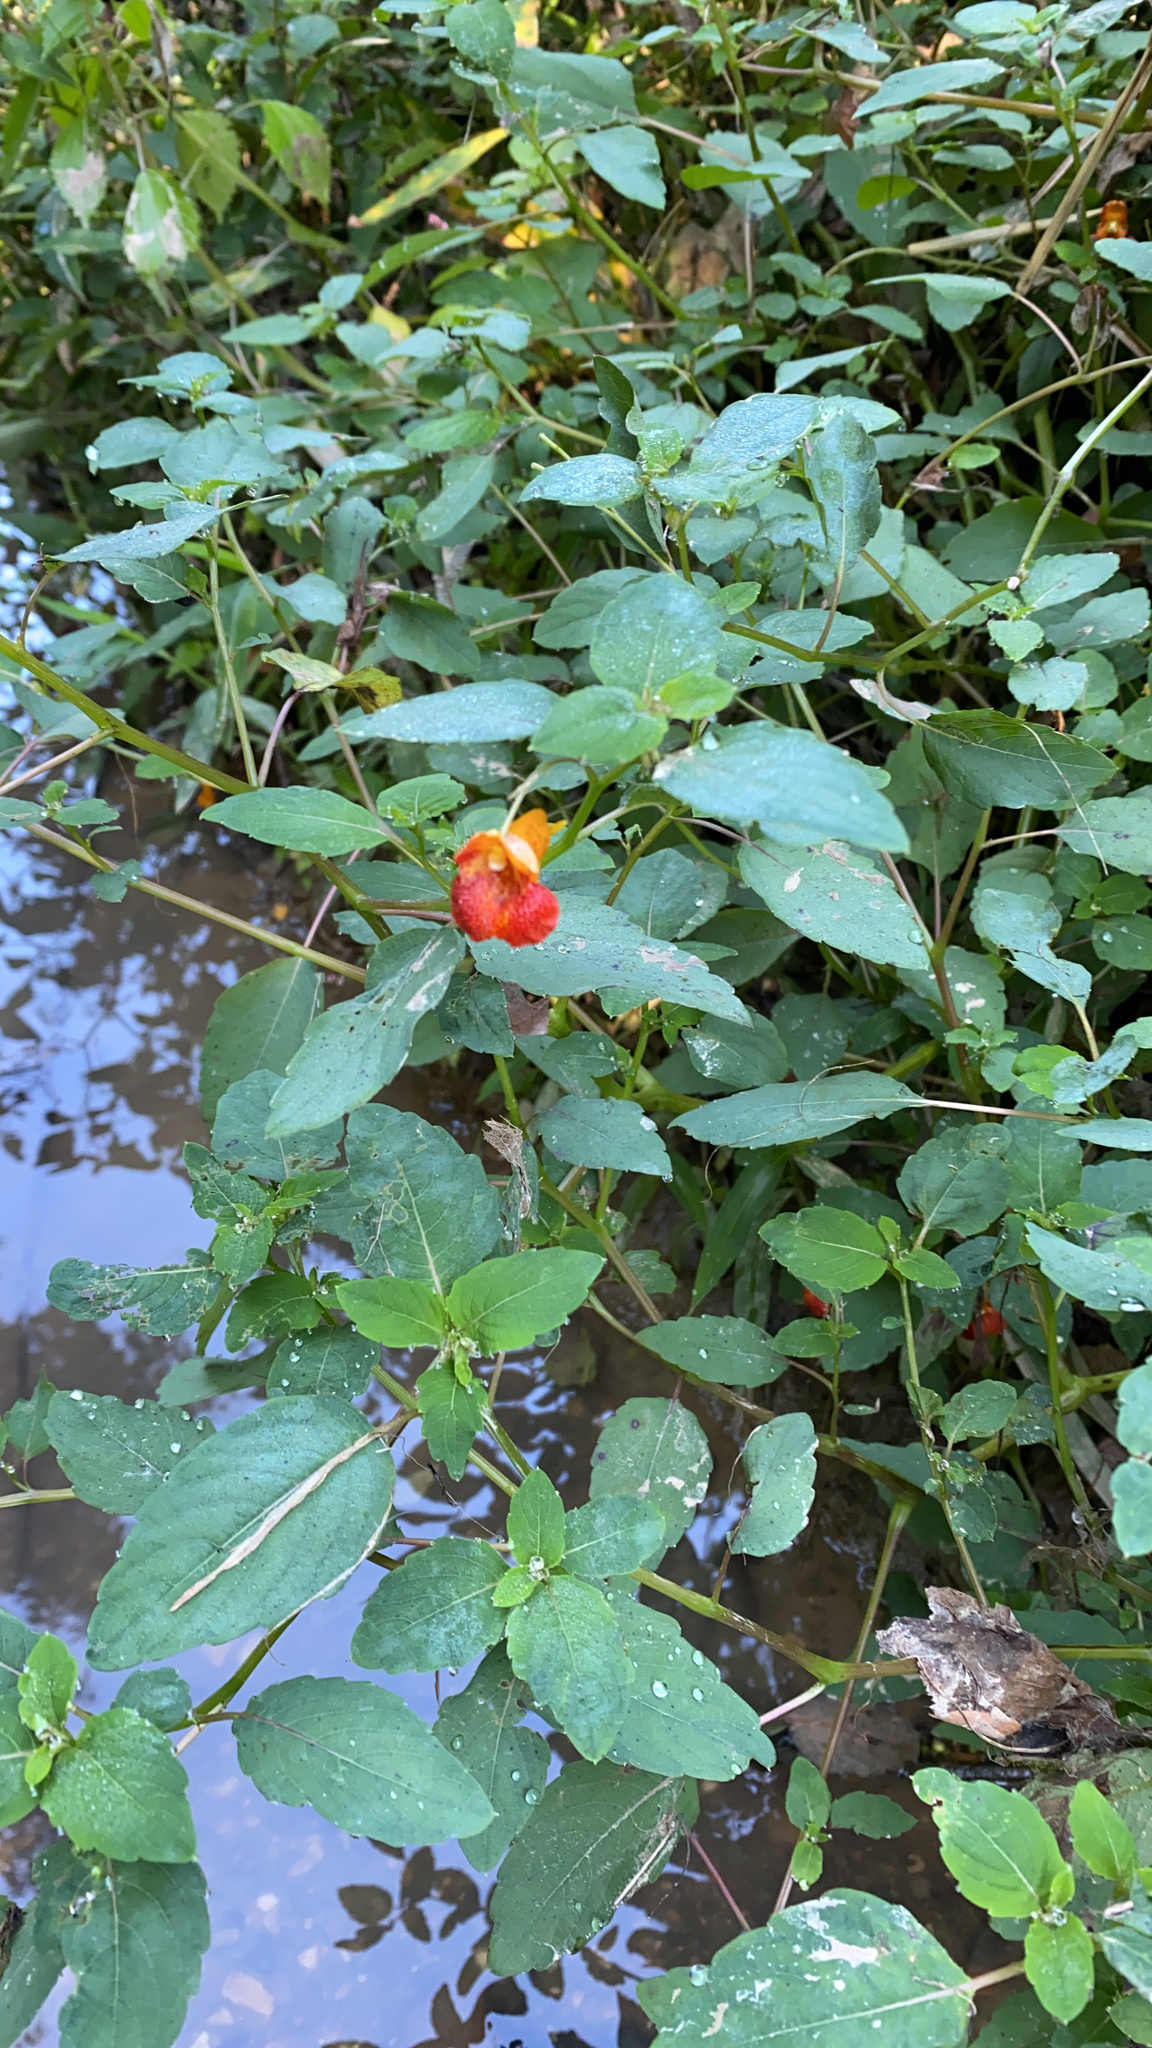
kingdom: Plantae
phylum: Tracheophyta
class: Magnoliopsida
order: Ericales
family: Balsaminaceae
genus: Impatiens
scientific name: Impatiens capensis
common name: Orange balsam
